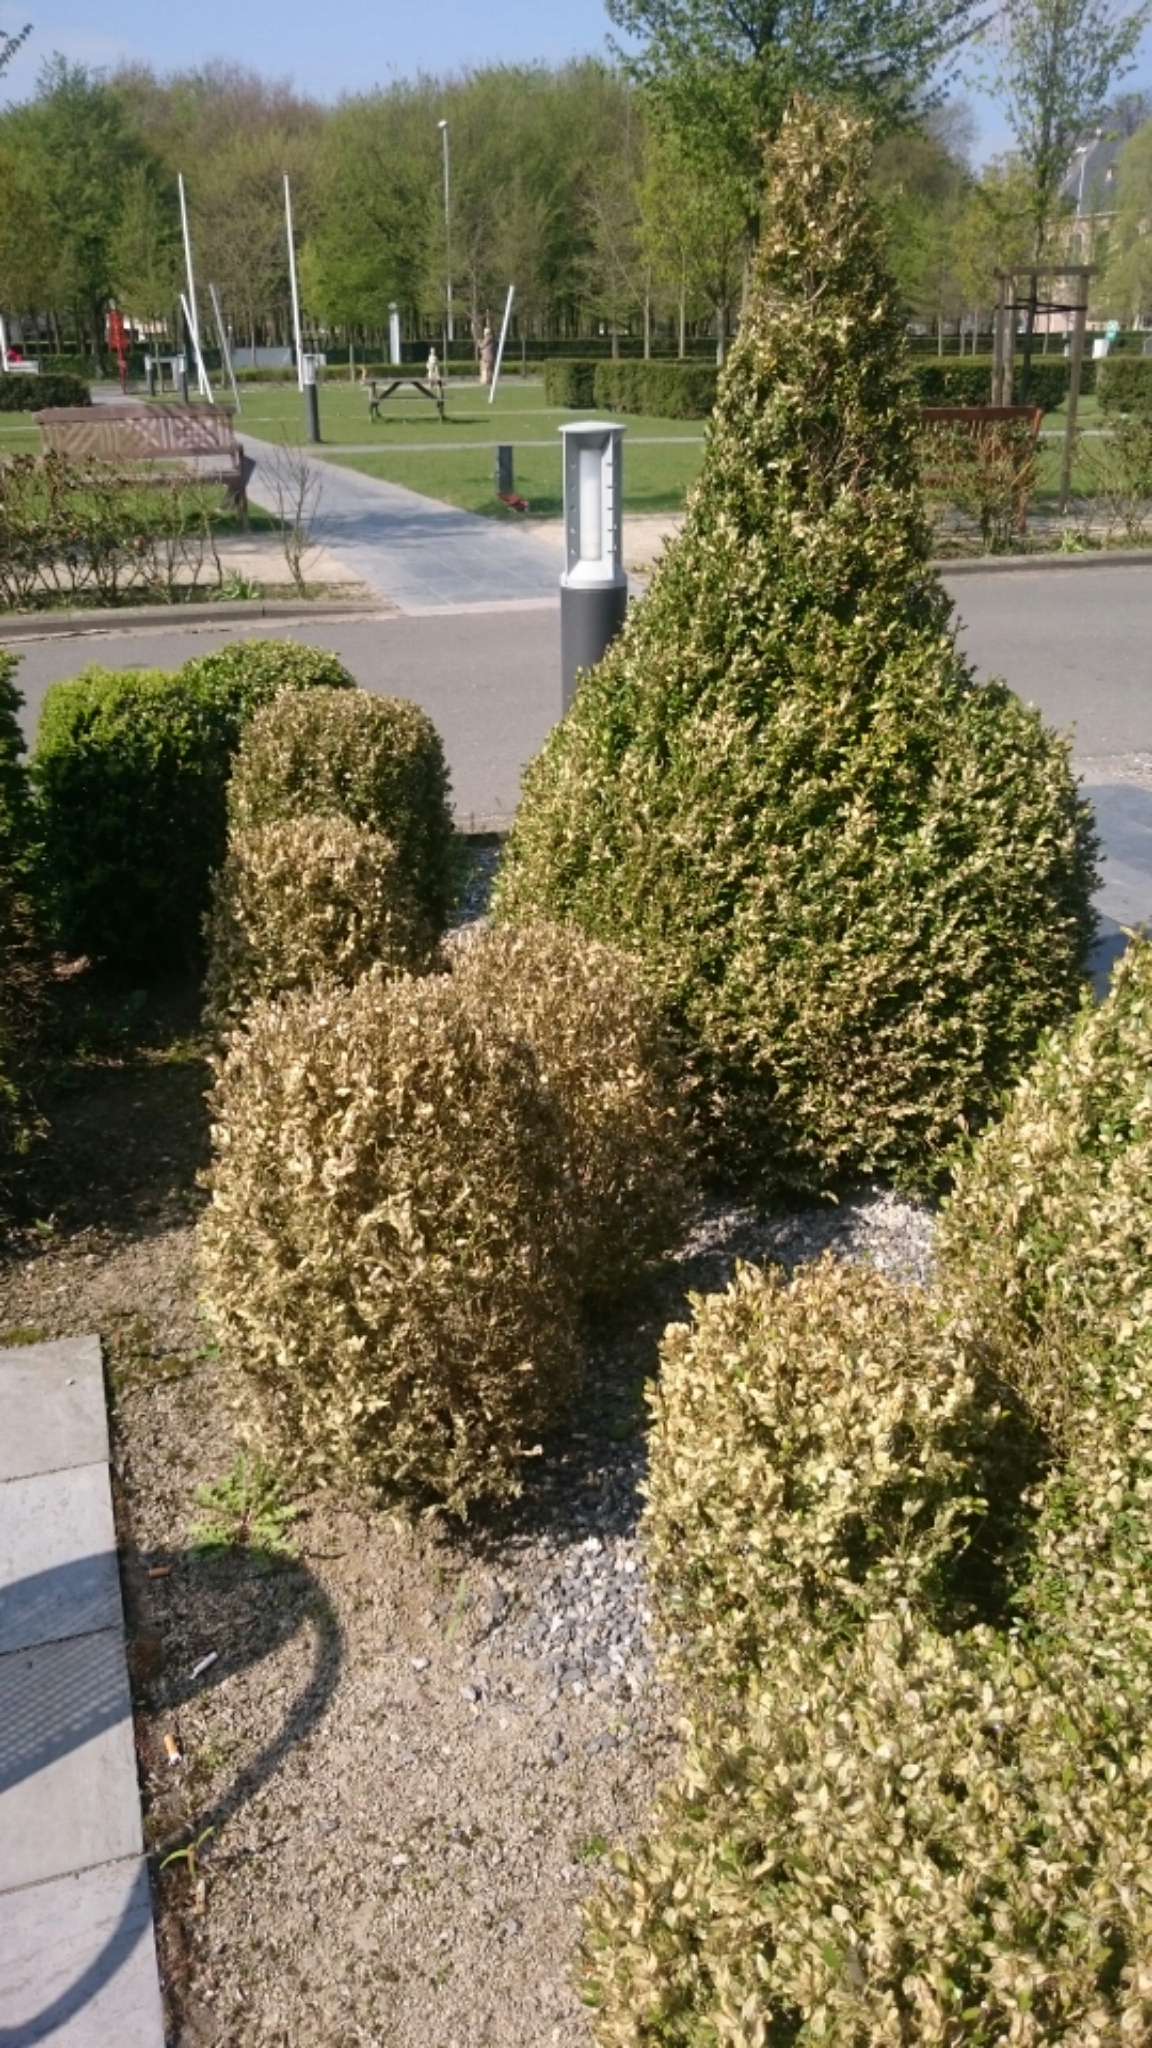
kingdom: Animalia
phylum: Arthropoda
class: Insecta
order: Lepidoptera
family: Crambidae
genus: Cydalima
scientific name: Cydalima perspectalis
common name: Box tree moth
